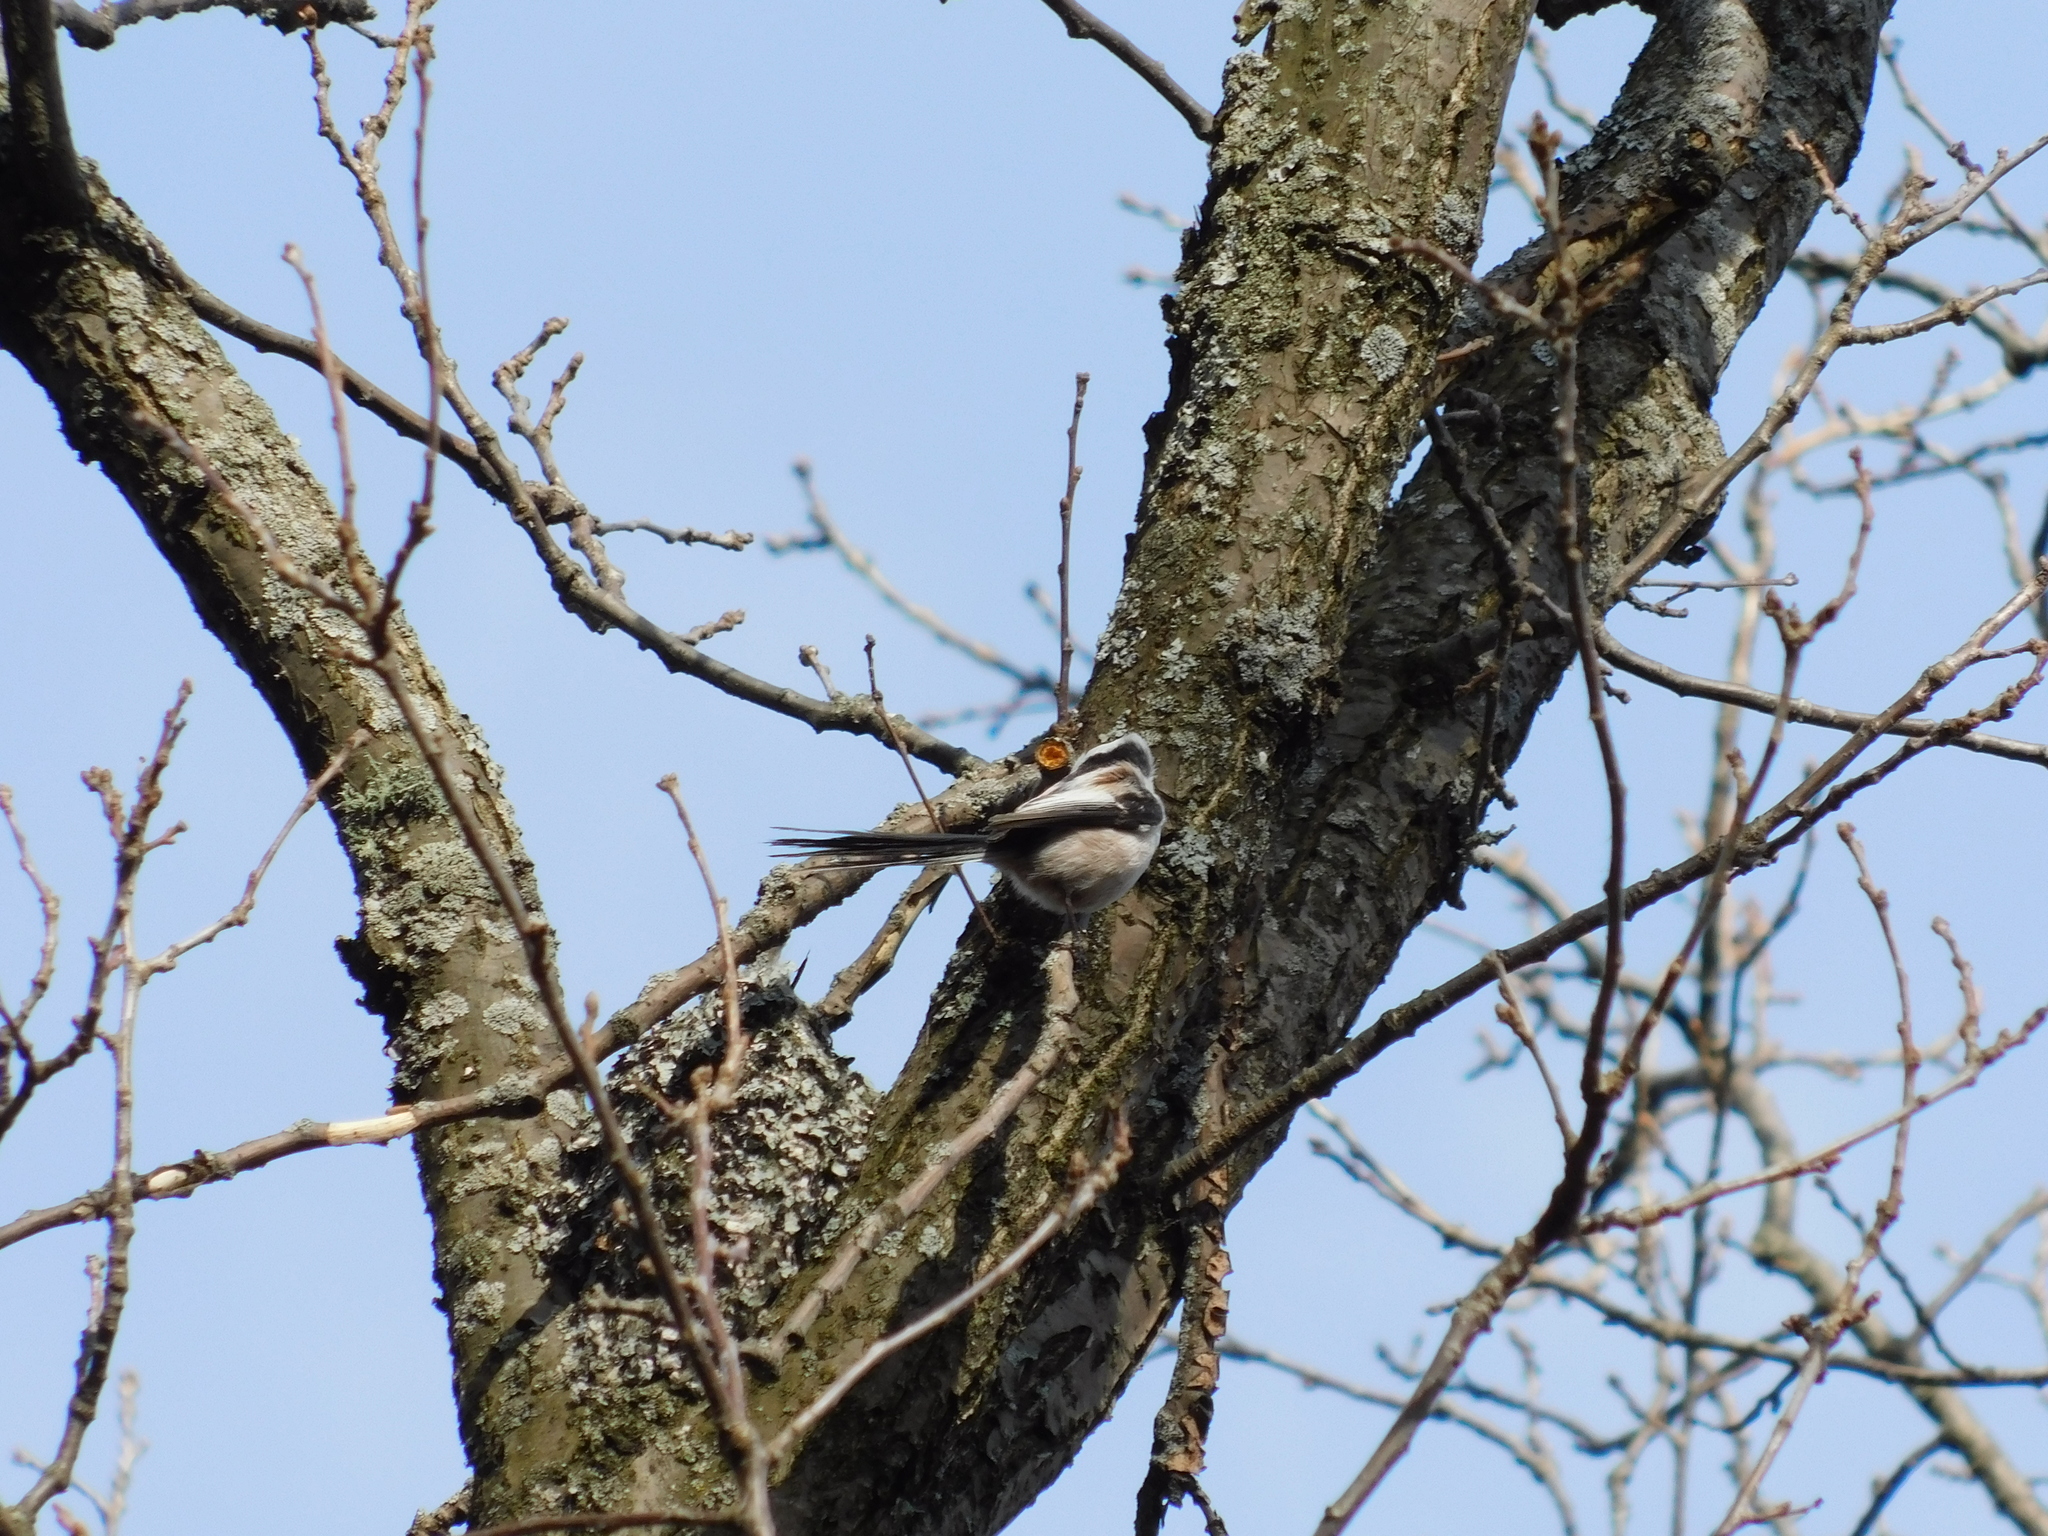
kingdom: Animalia
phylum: Chordata
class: Aves
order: Passeriformes
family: Aegithalidae
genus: Aegithalos
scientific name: Aegithalos caudatus
